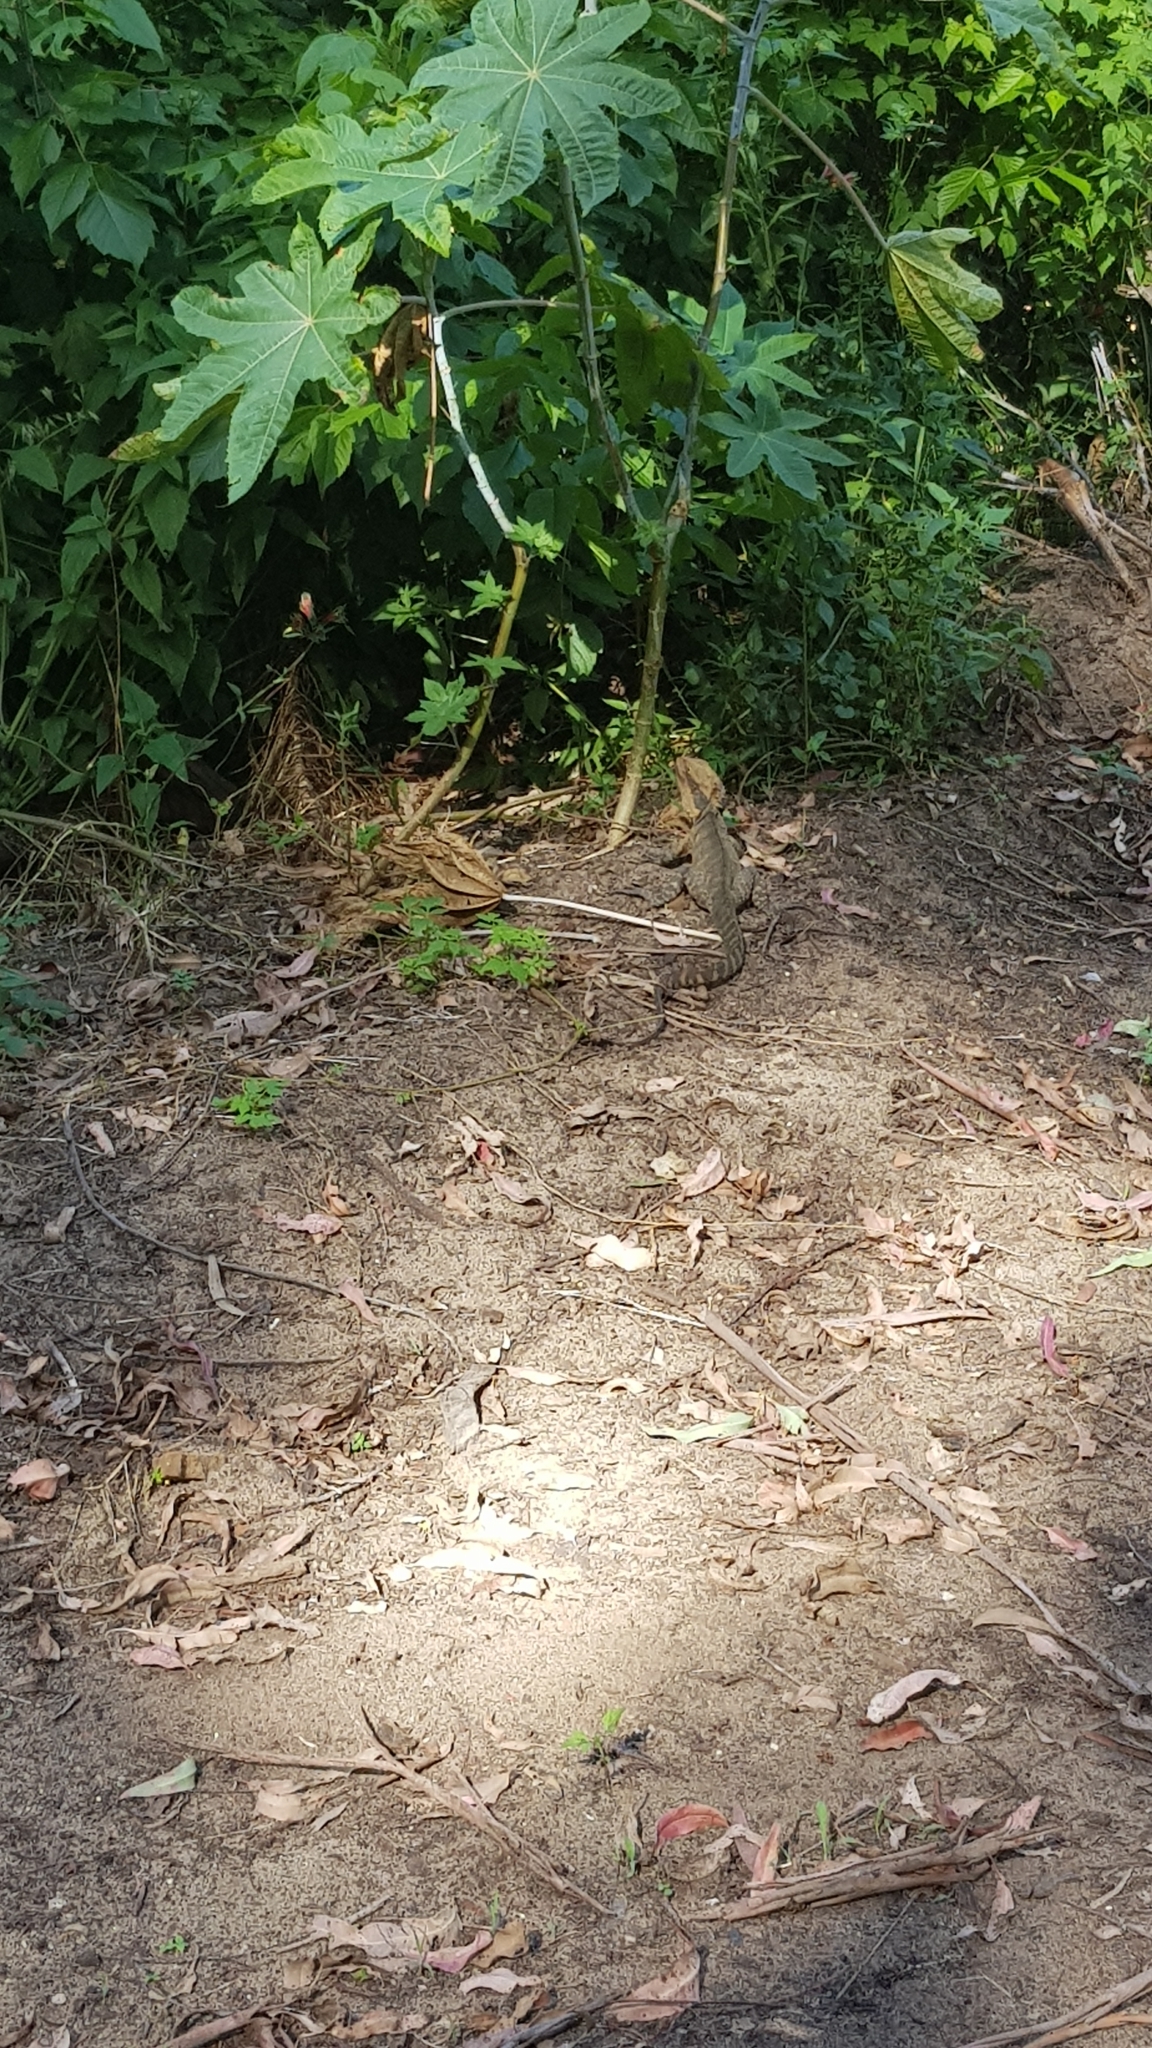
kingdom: Animalia
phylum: Chordata
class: Squamata
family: Agamidae
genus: Intellagama
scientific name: Intellagama lesueurii
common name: Eastern water dragon
